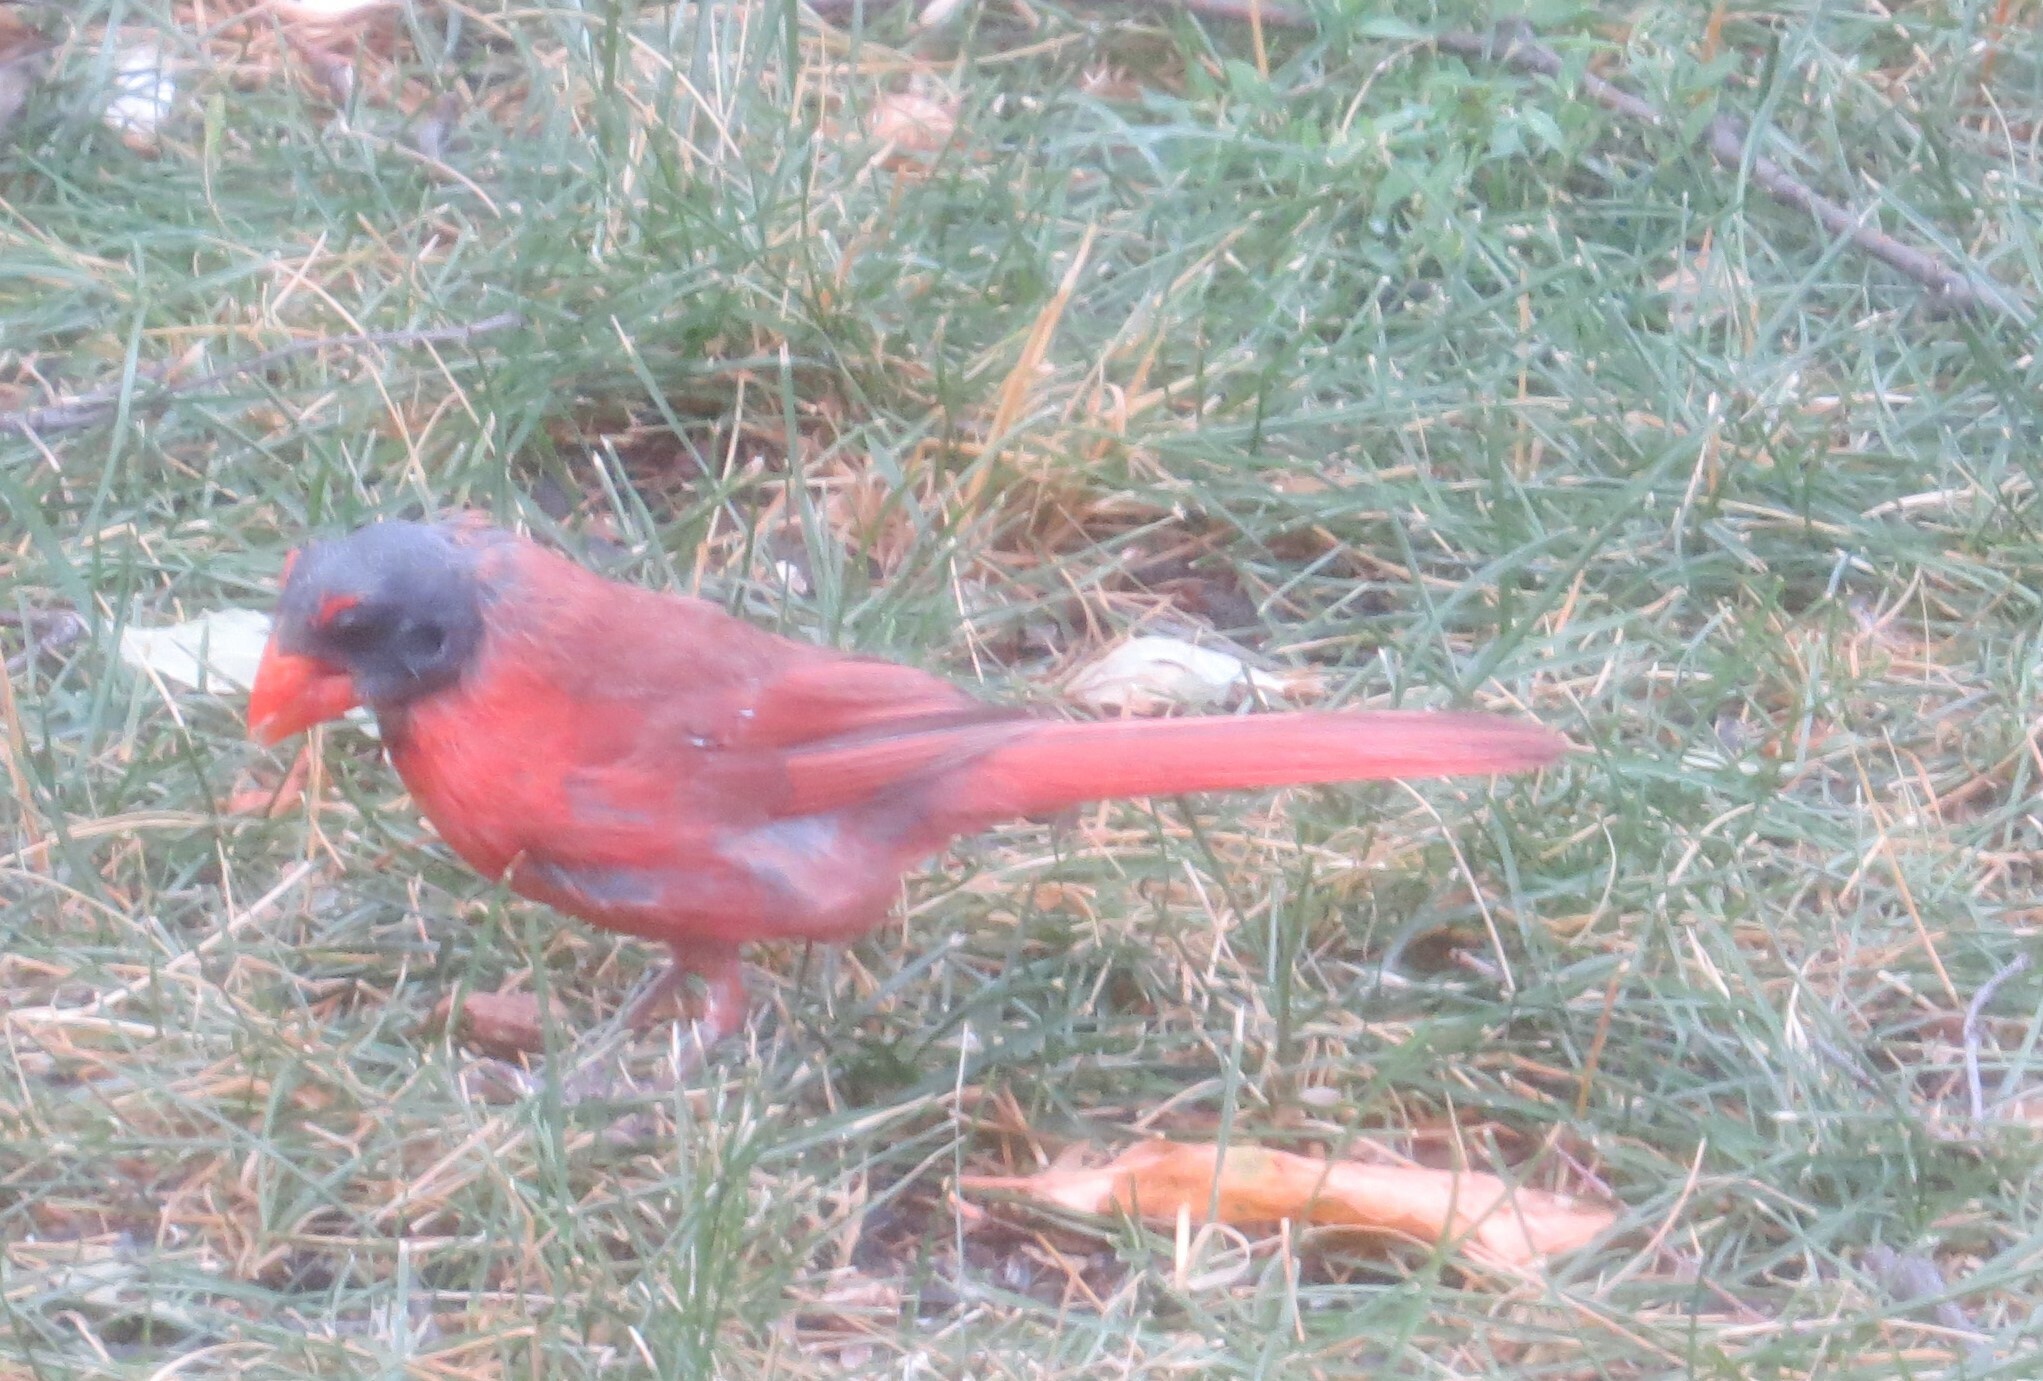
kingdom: Animalia
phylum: Chordata
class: Aves
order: Passeriformes
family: Cardinalidae
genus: Cardinalis
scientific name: Cardinalis cardinalis
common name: Northern cardinal
